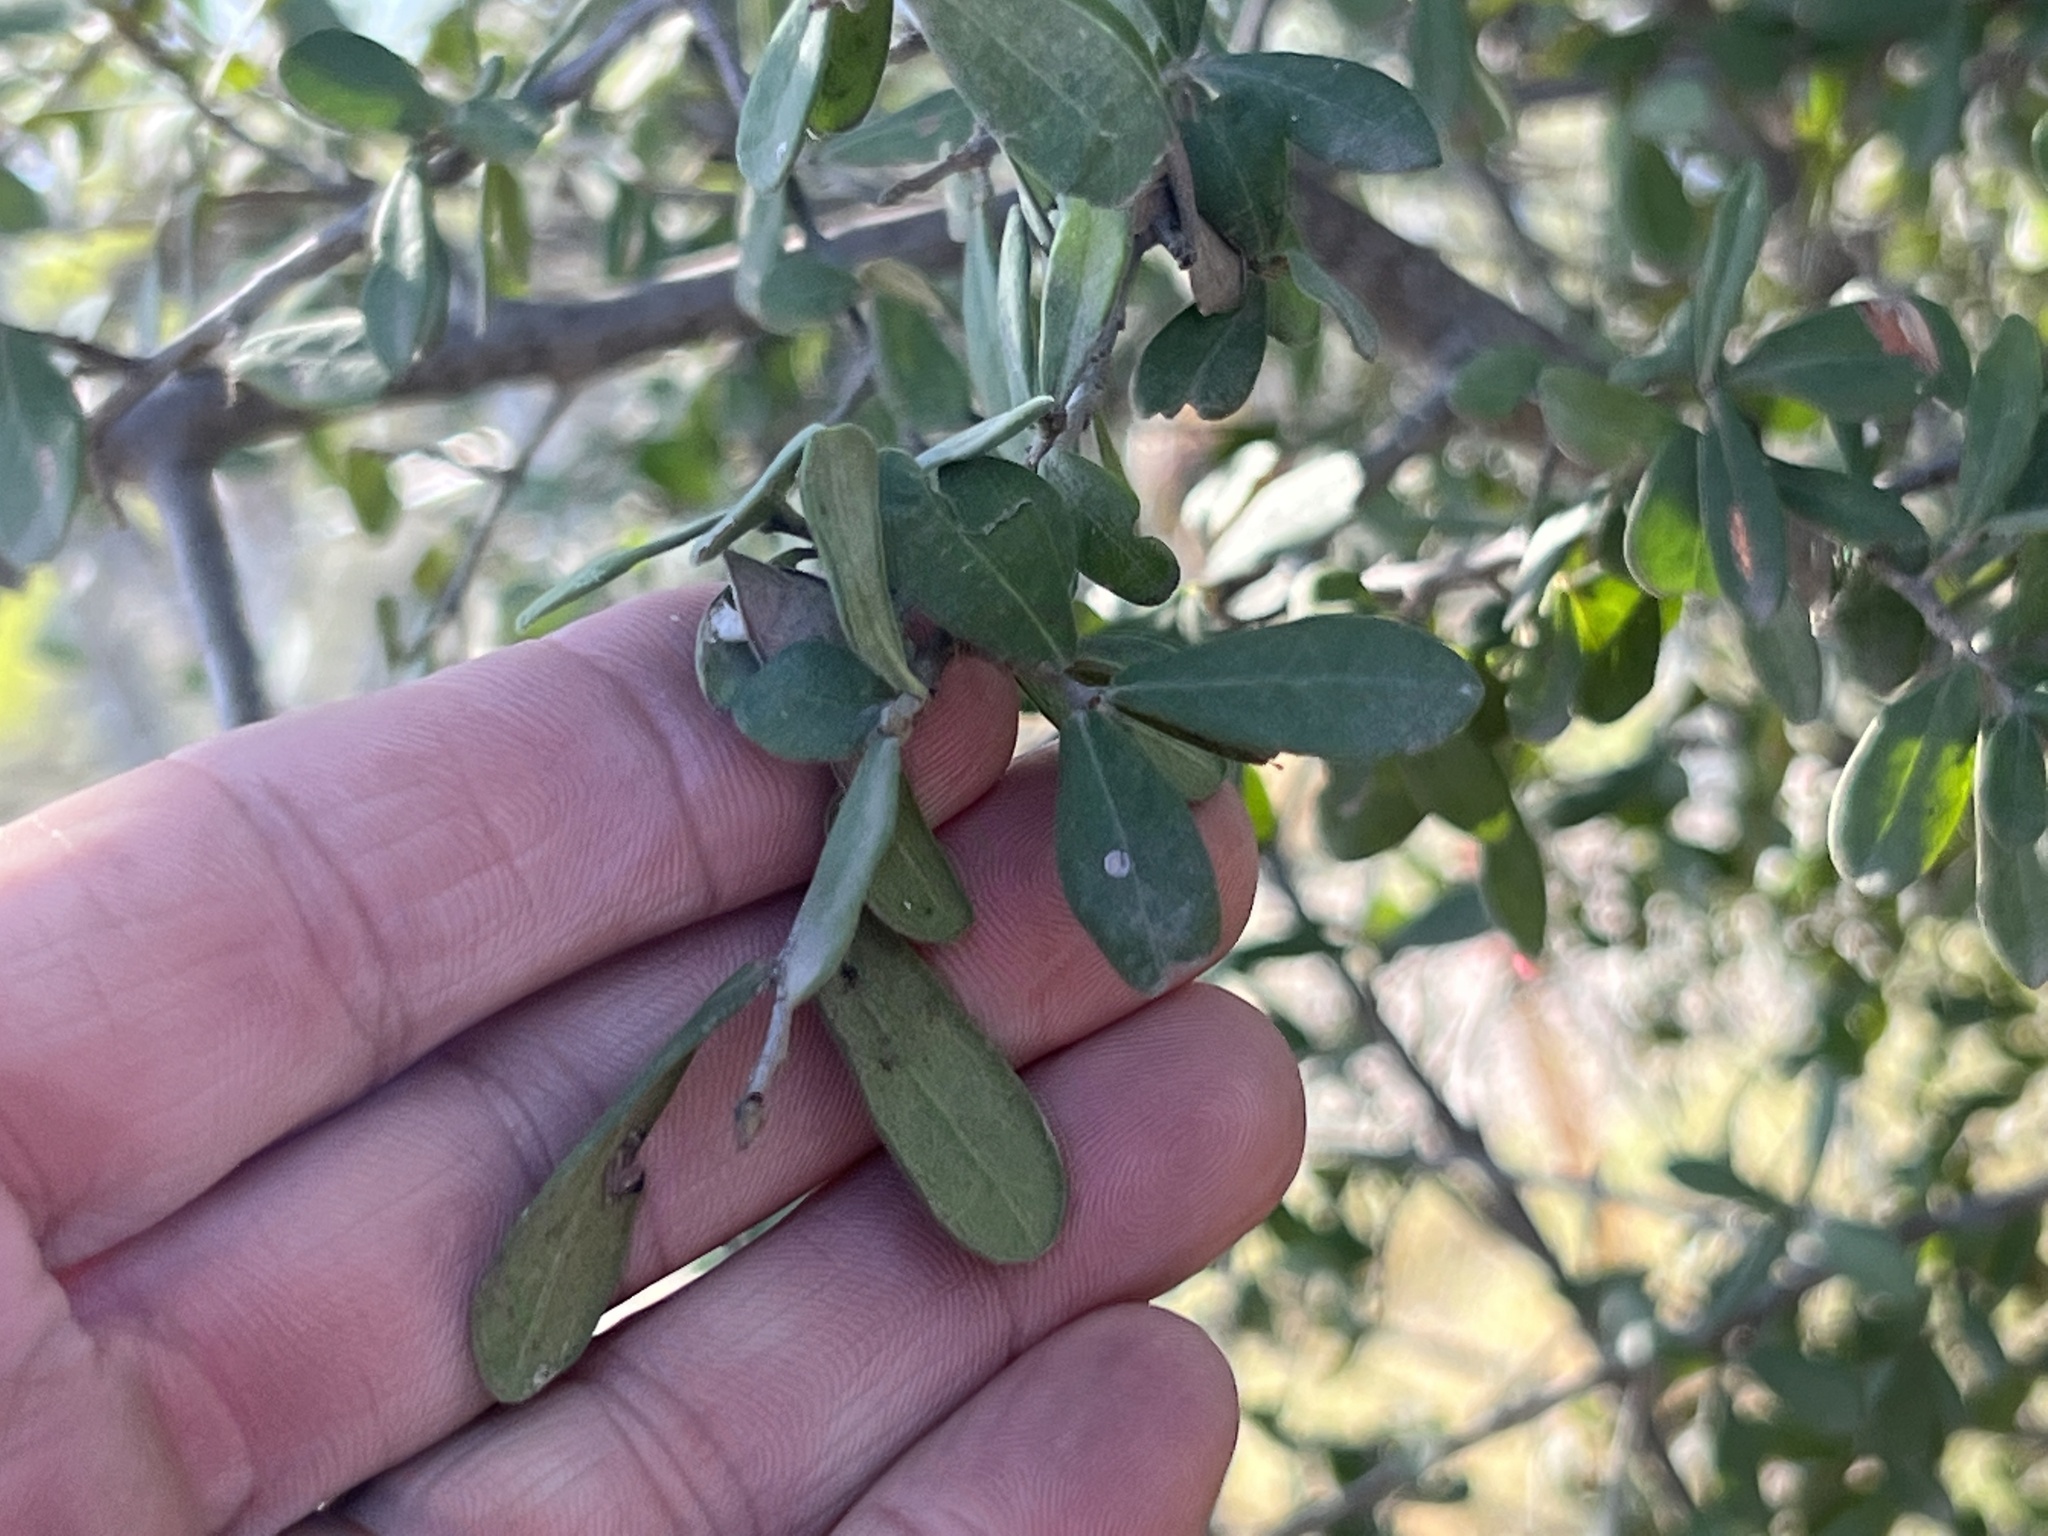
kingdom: Plantae
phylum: Tracheophyta
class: Magnoliopsida
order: Ericales
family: Ebenaceae
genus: Diospyros
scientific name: Diospyros texana
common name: Texas persimmon
